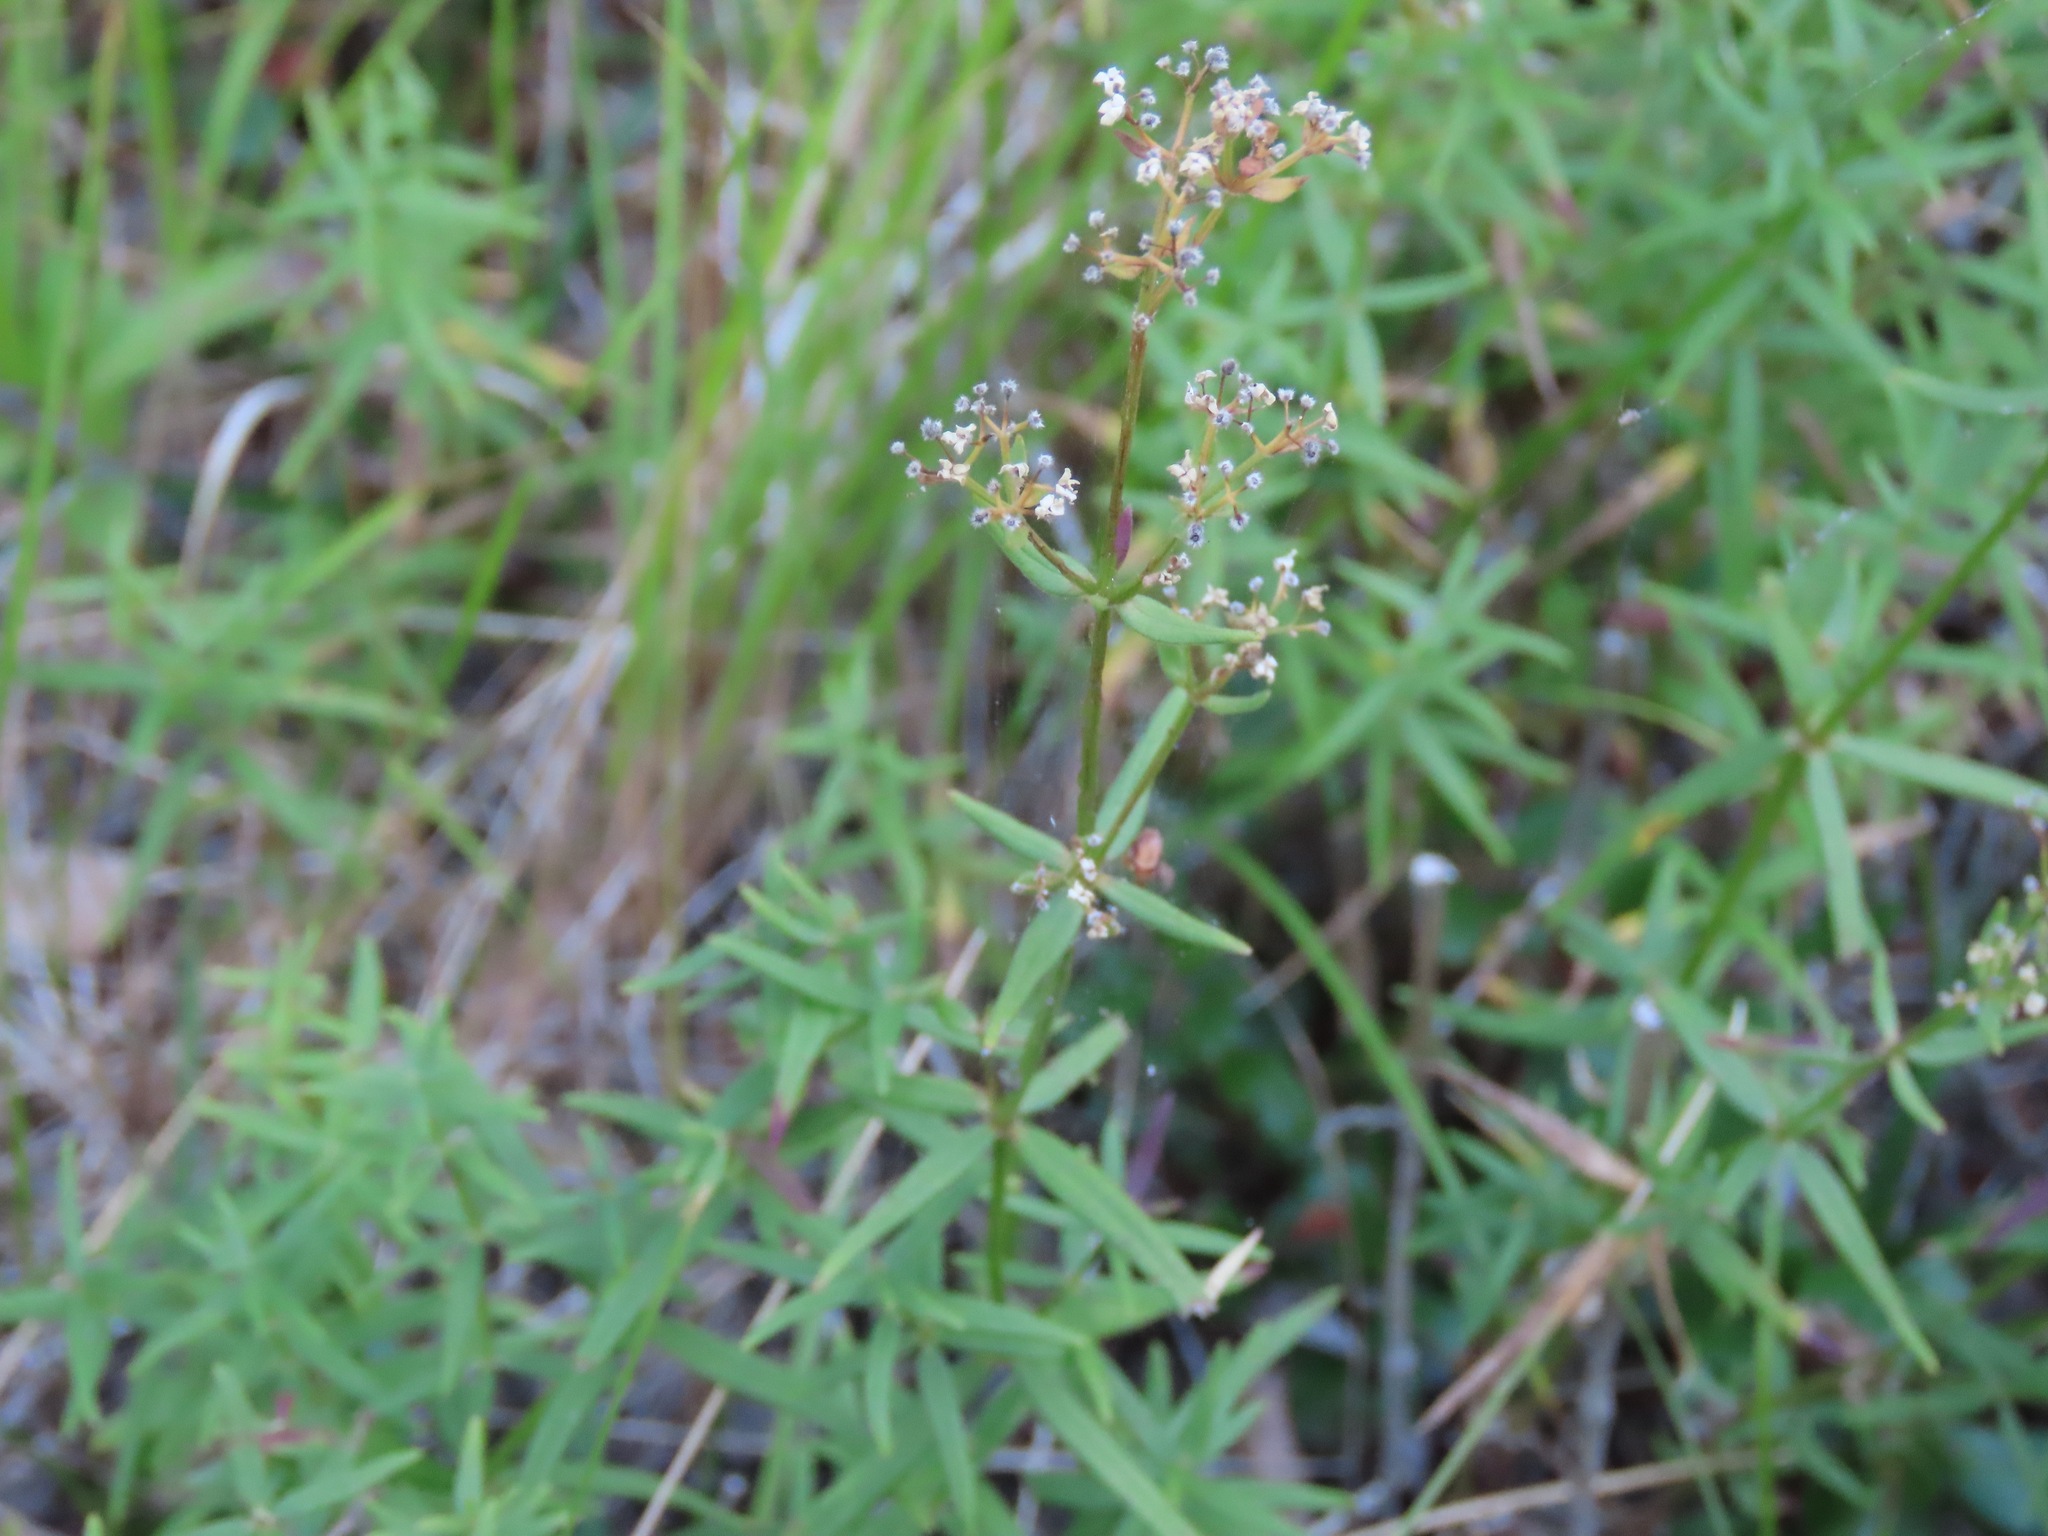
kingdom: Plantae
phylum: Tracheophyta
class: Magnoliopsida
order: Gentianales
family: Rubiaceae
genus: Galium
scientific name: Galium boreale
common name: Northern bedstraw
